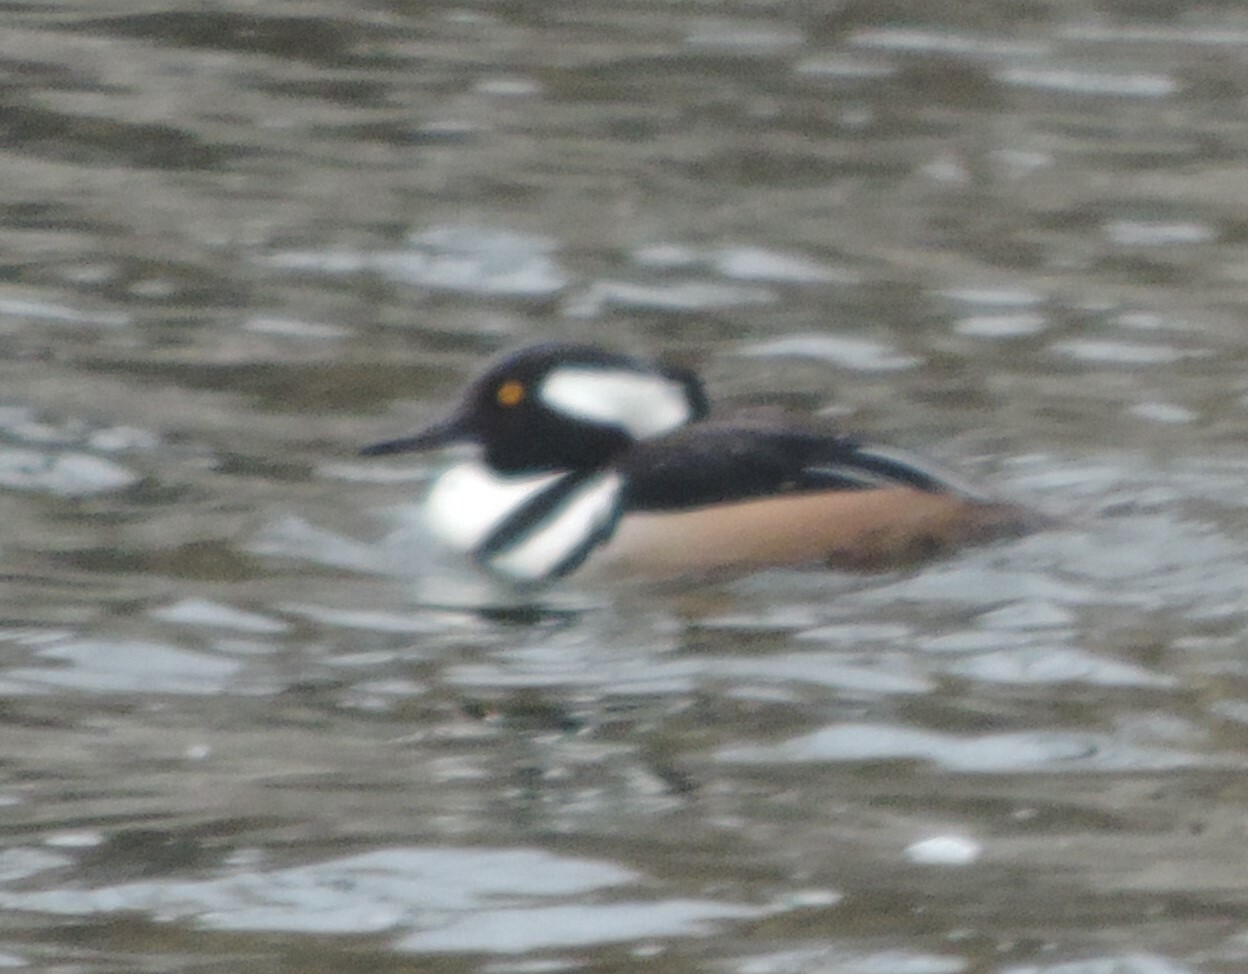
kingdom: Animalia
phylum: Chordata
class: Aves
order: Anseriformes
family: Anatidae
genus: Lophodytes
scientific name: Lophodytes cucullatus
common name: Hooded merganser
